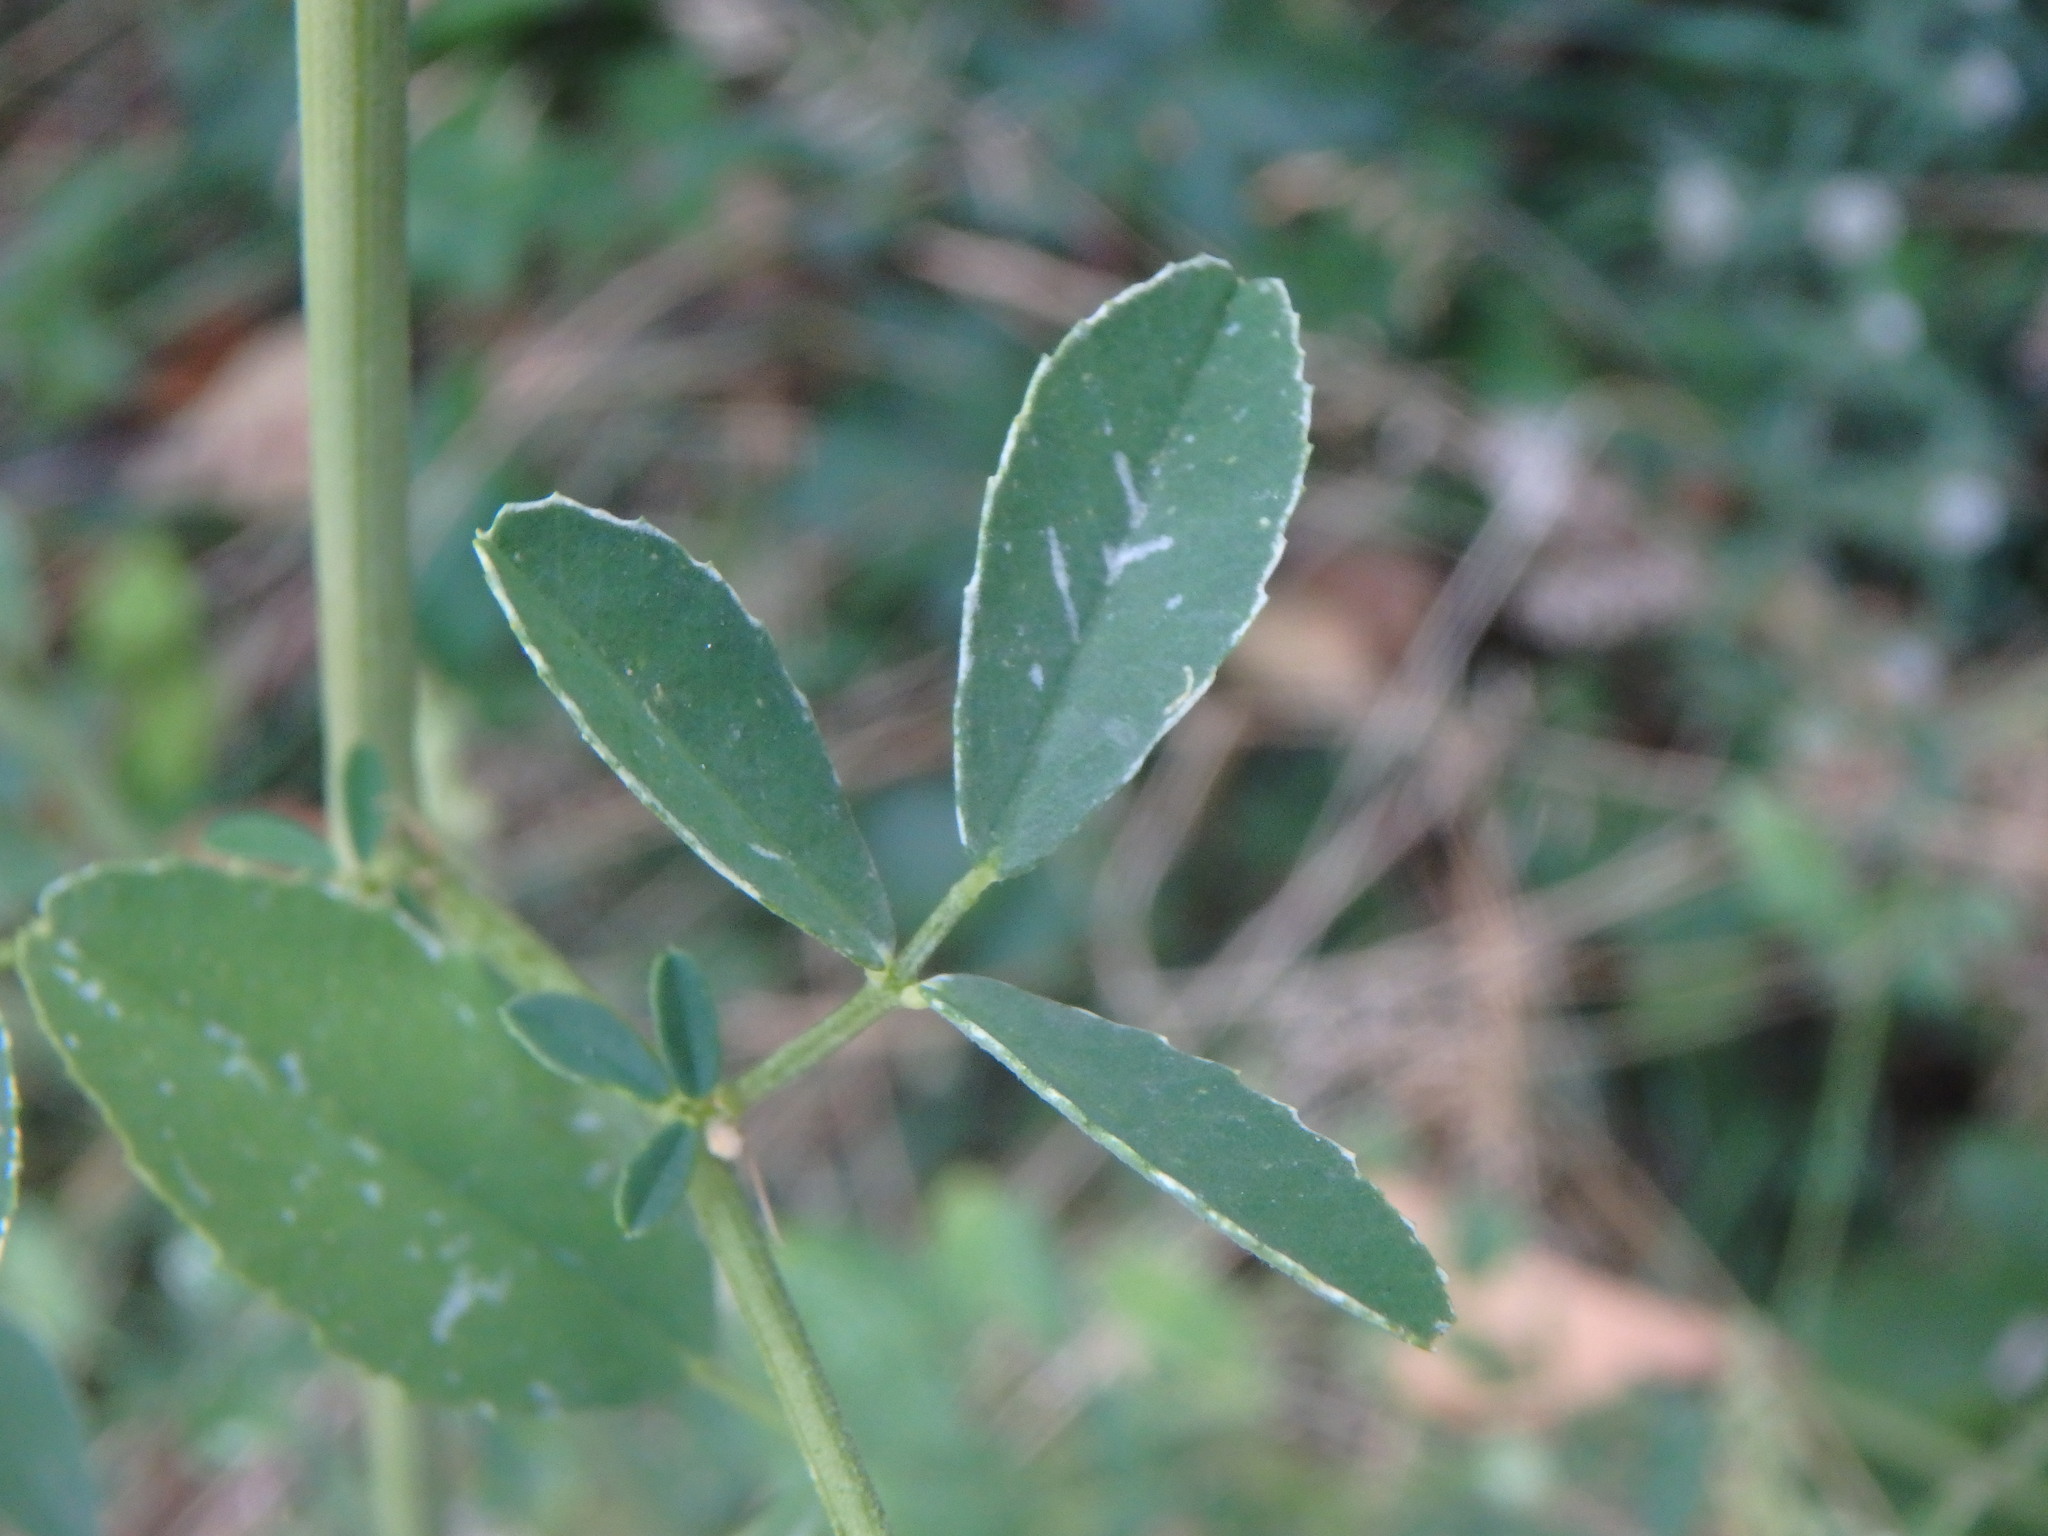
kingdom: Plantae
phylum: Tracheophyta
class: Magnoliopsida
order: Fabales
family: Fabaceae
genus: Melilotus
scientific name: Melilotus albus
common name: White melilot
